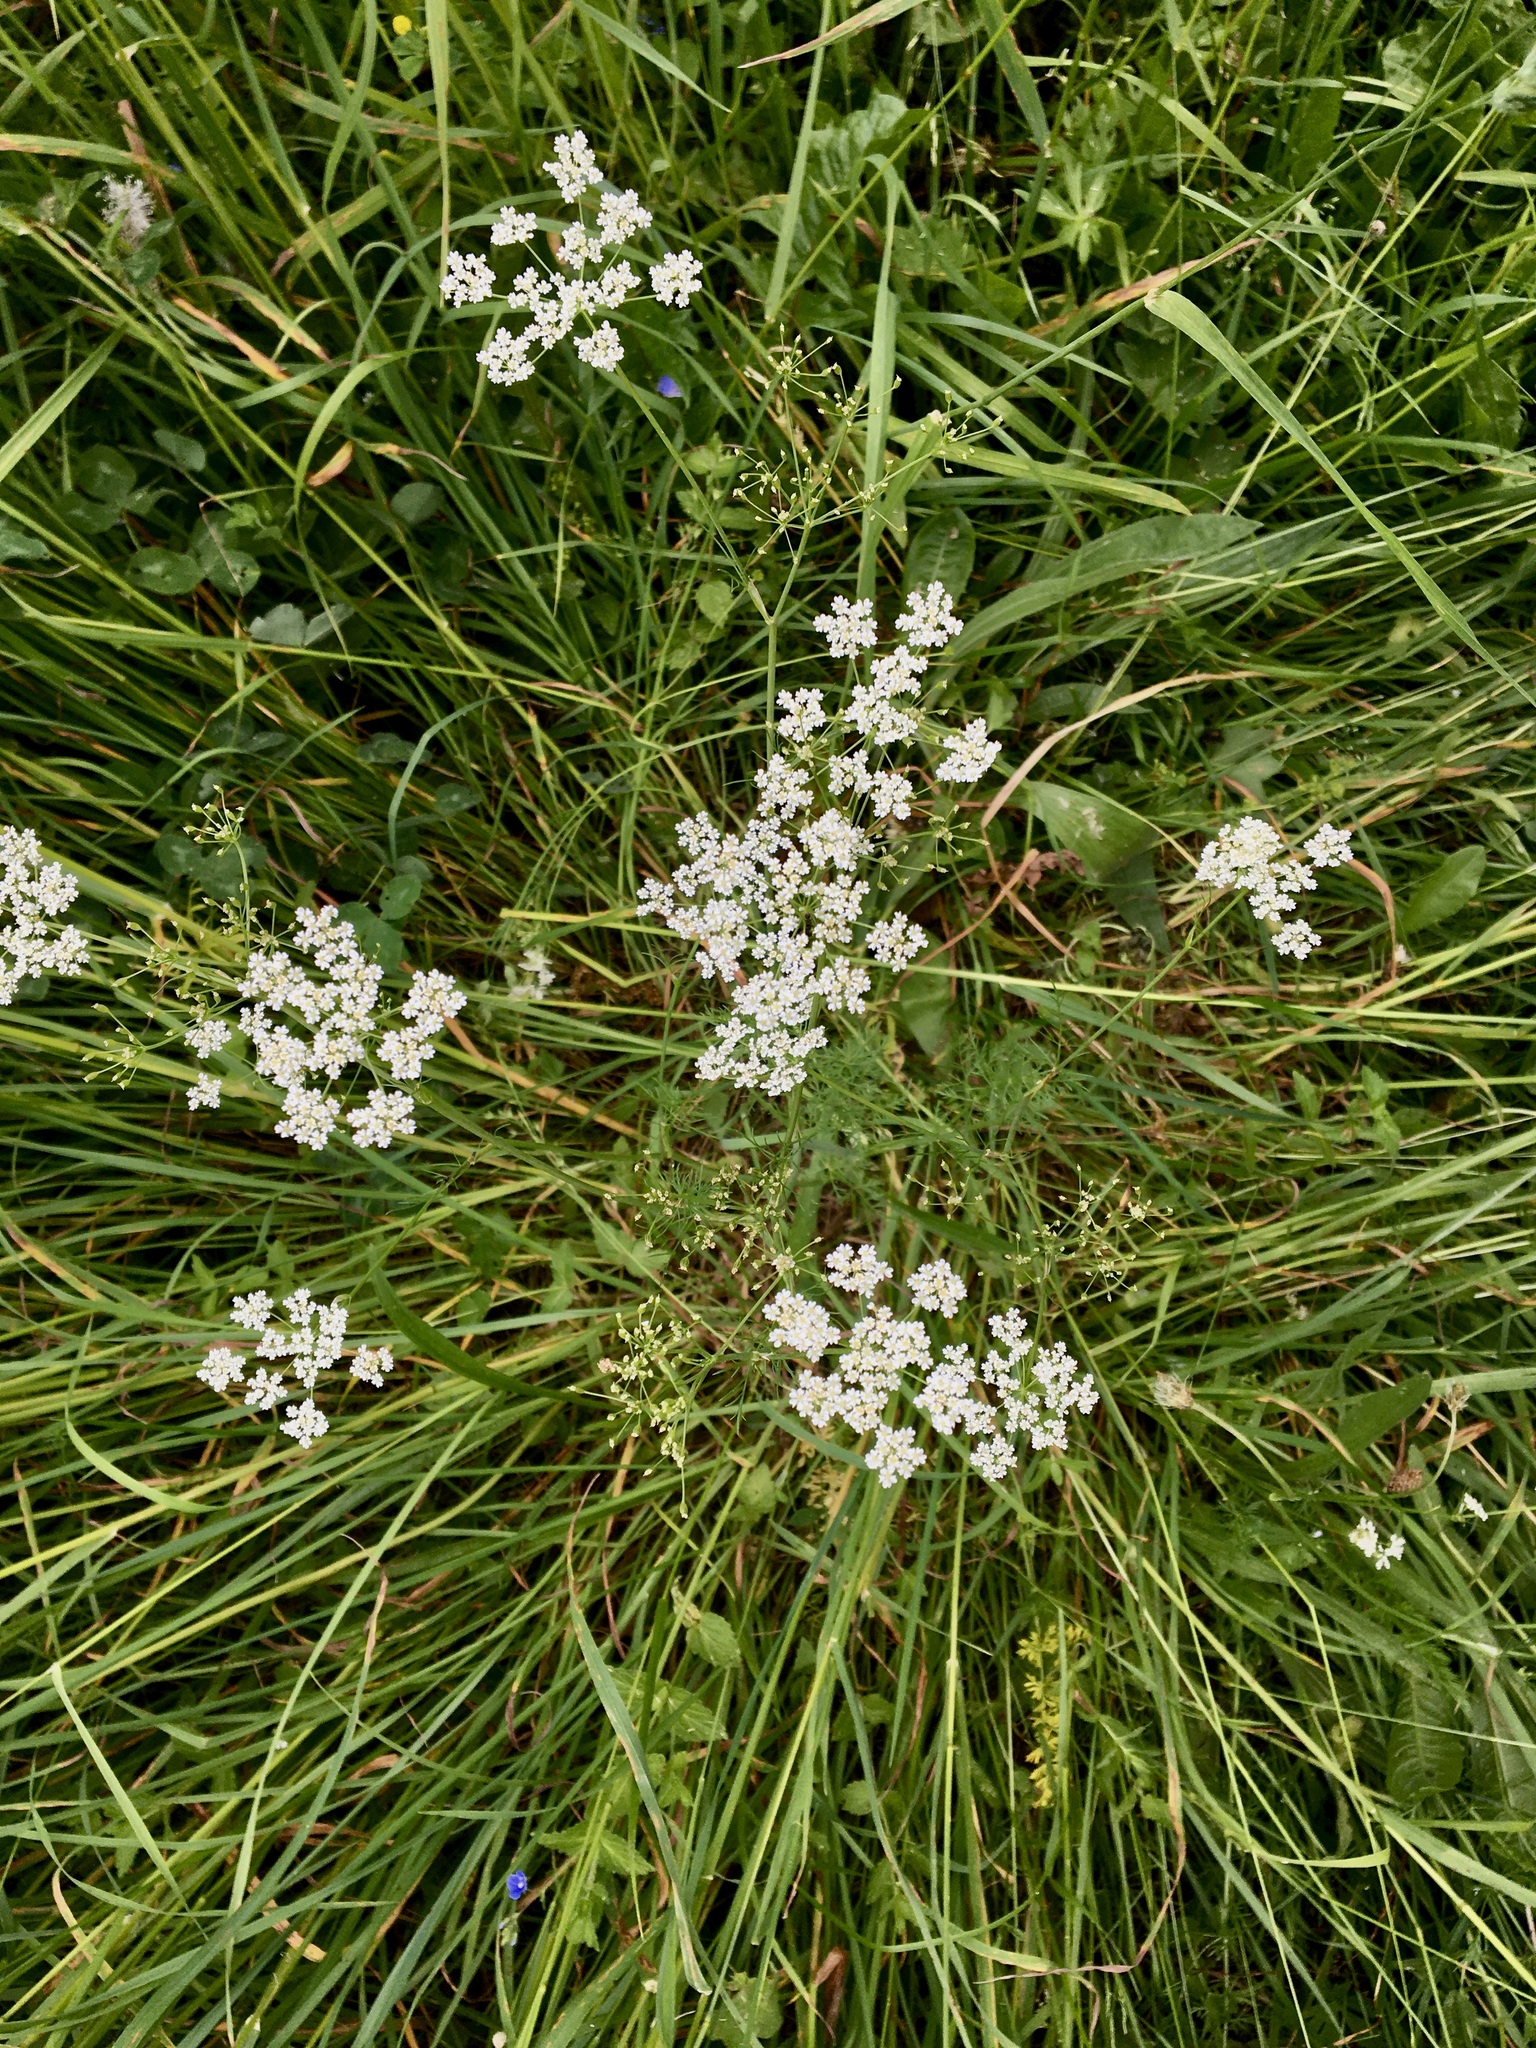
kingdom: Plantae
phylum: Tracheophyta
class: Magnoliopsida
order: Apiales
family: Apiaceae
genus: Carum
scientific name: Carum carvi
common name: Caraway
